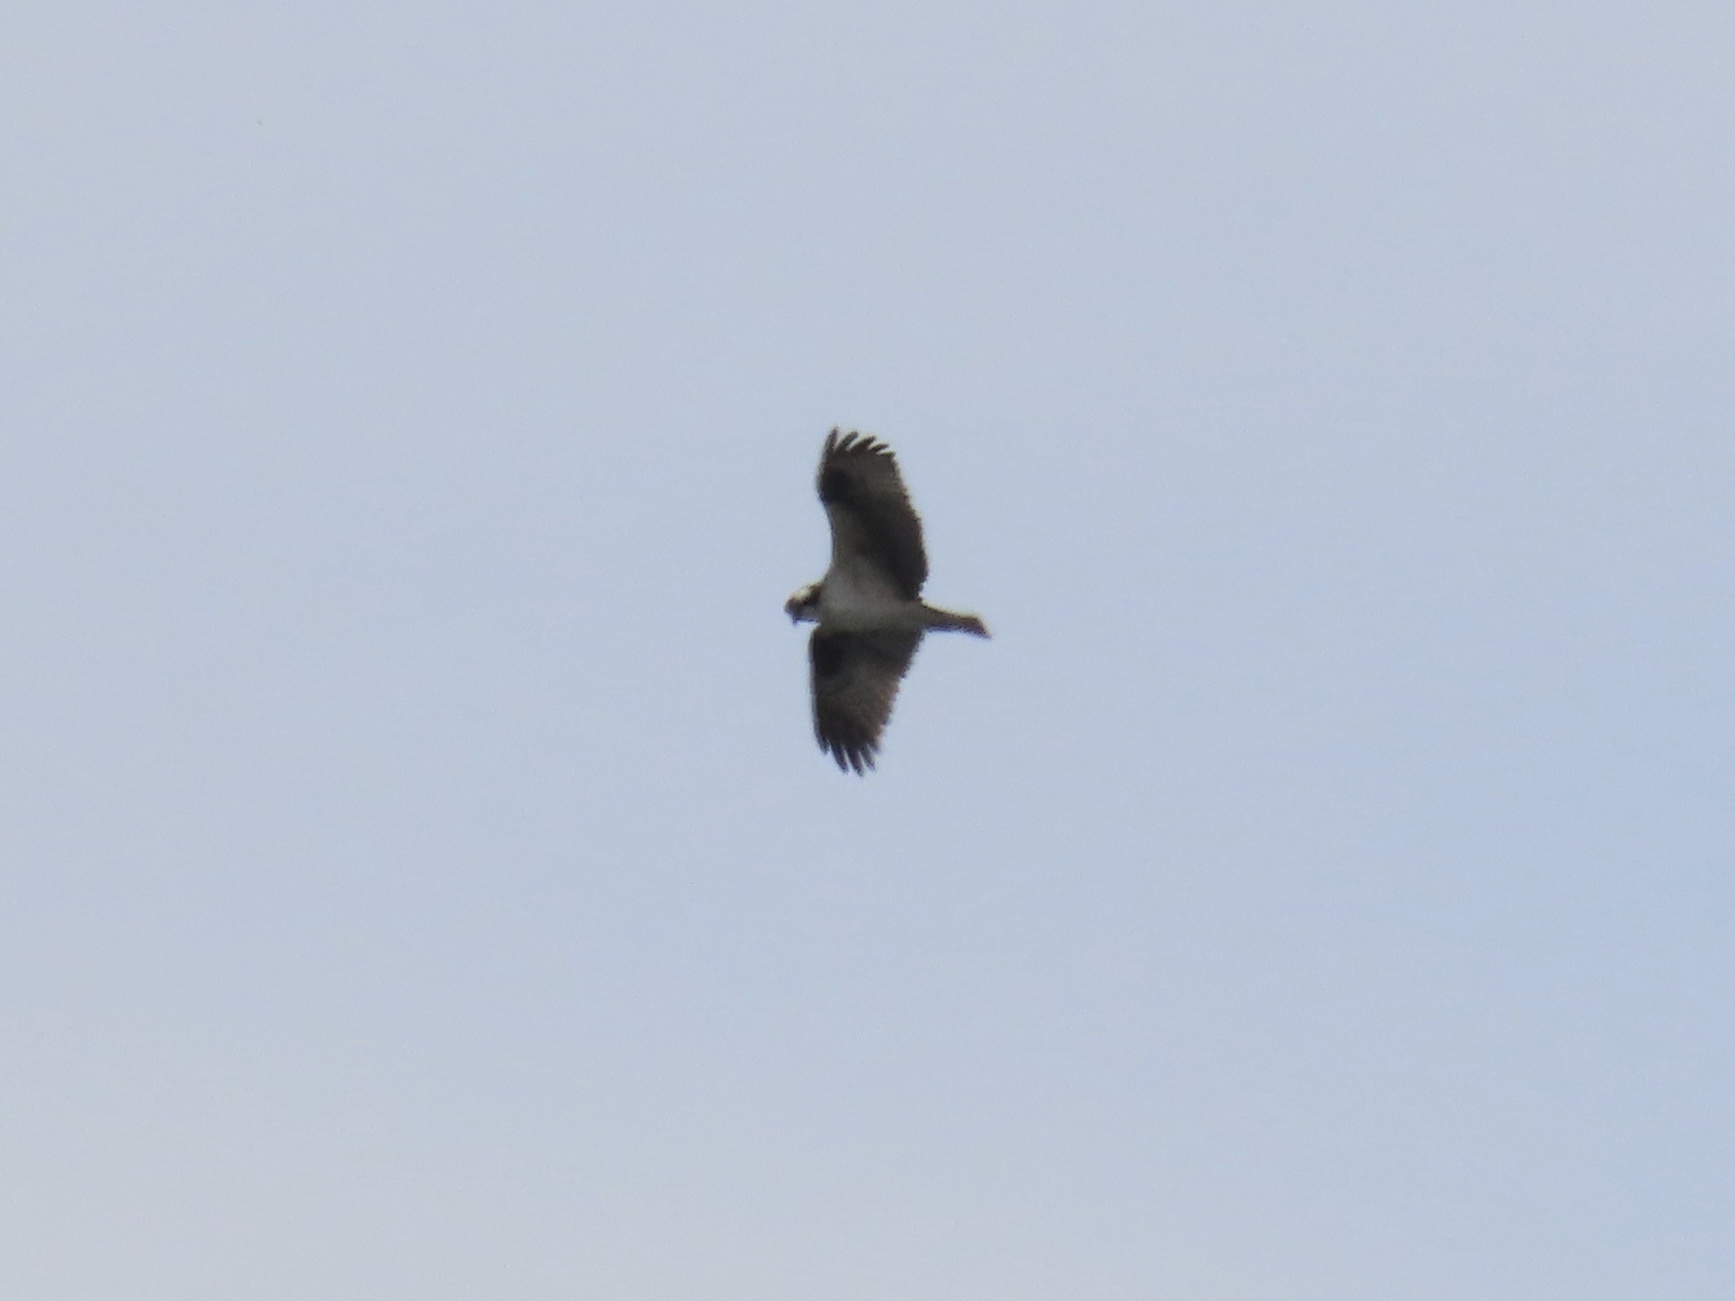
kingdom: Animalia
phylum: Chordata
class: Aves
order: Accipitriformes
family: Pandionidae
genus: Pandion
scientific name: Pandion haliaetus
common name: Osprey
